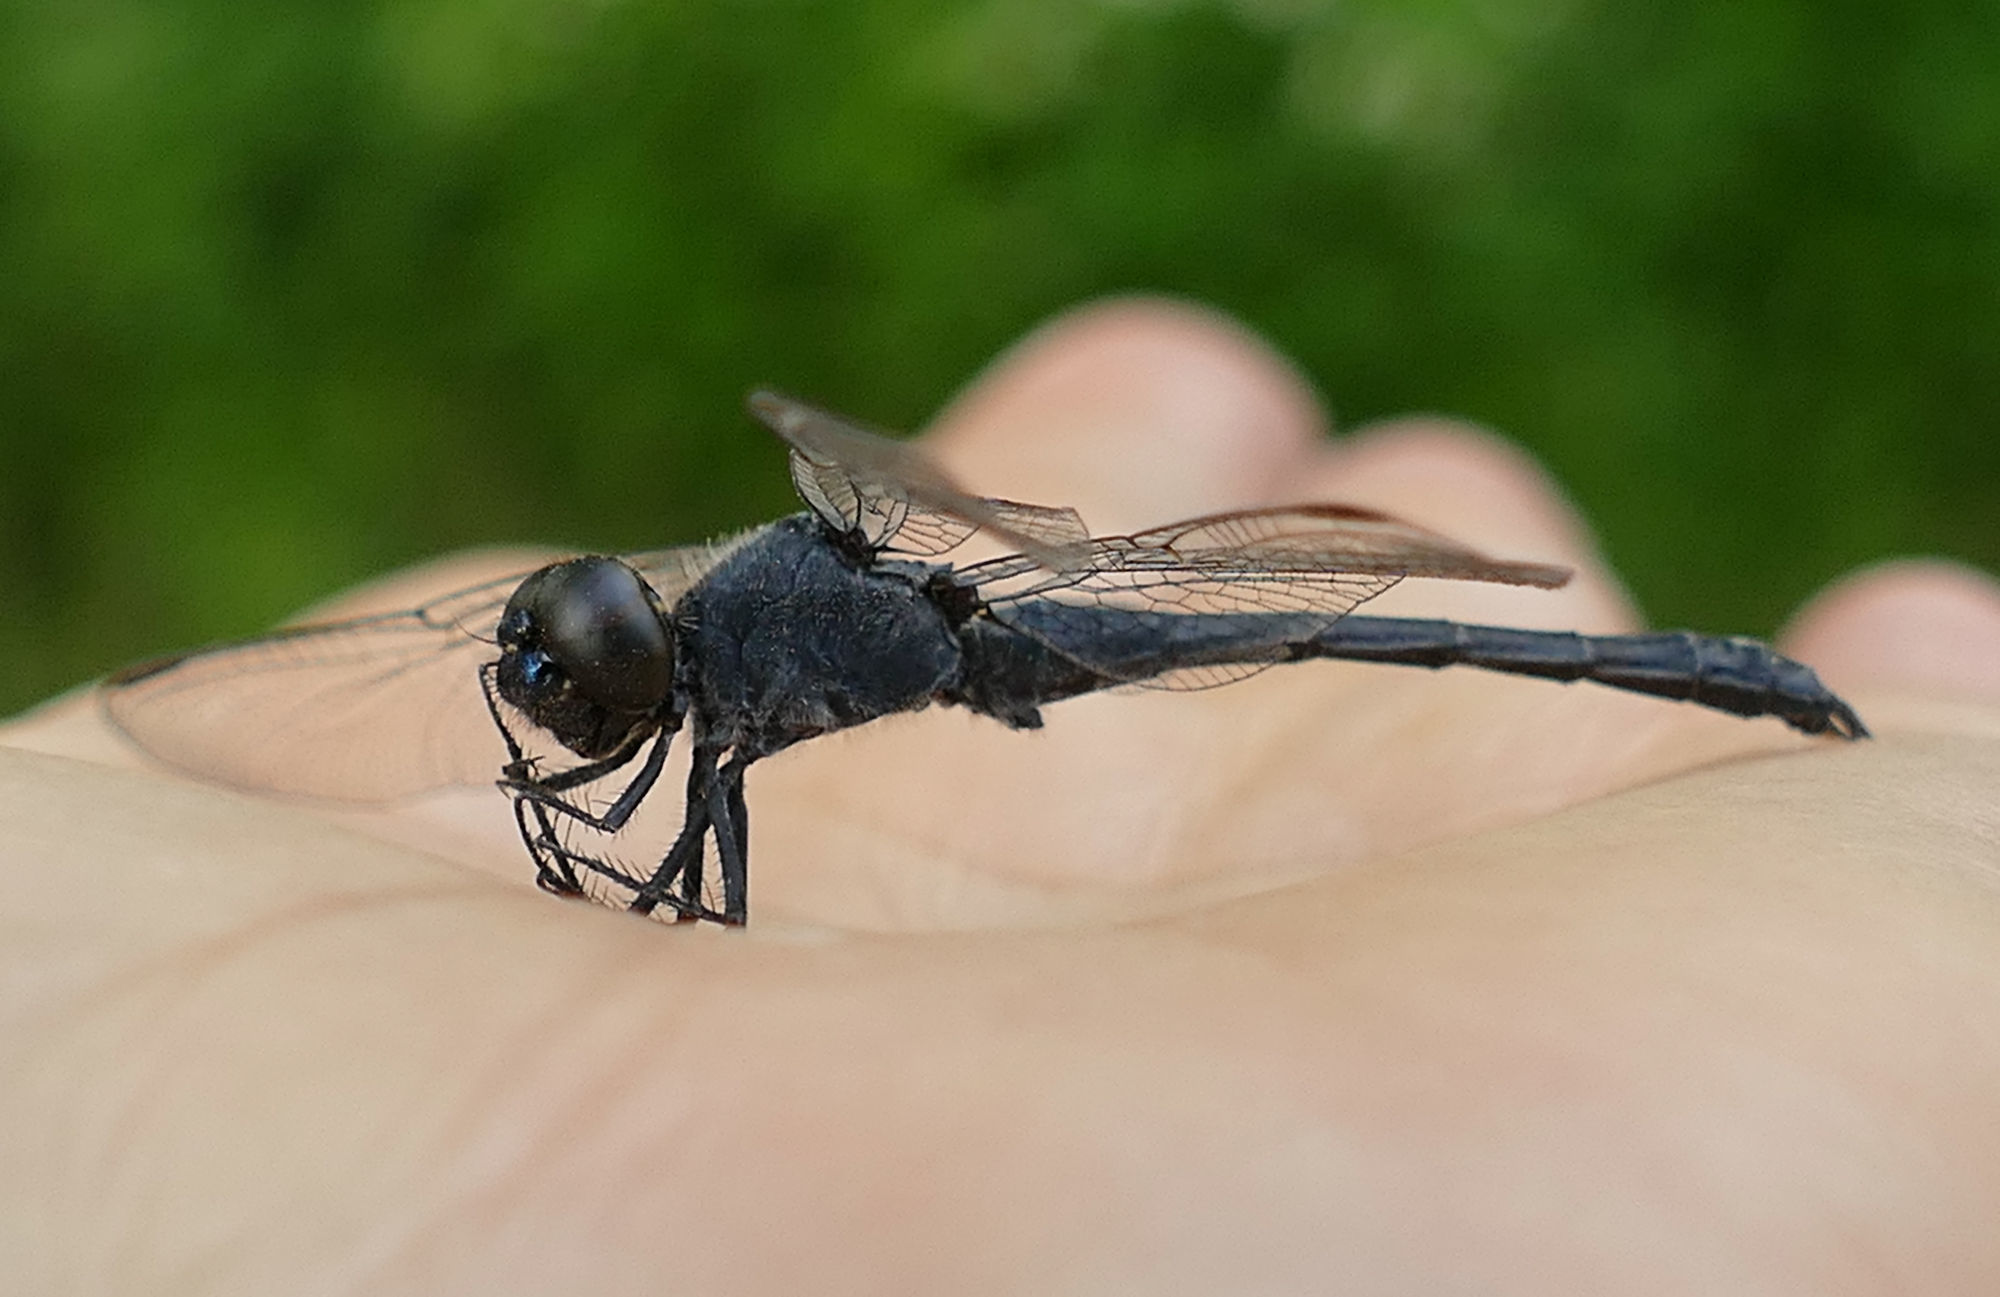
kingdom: Animalia
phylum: Arthropoda
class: Insecta
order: Odonata
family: Libellulidae
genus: Erythrodiplax
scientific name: Erythrodiplax berenice
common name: Seaside dragonlet
